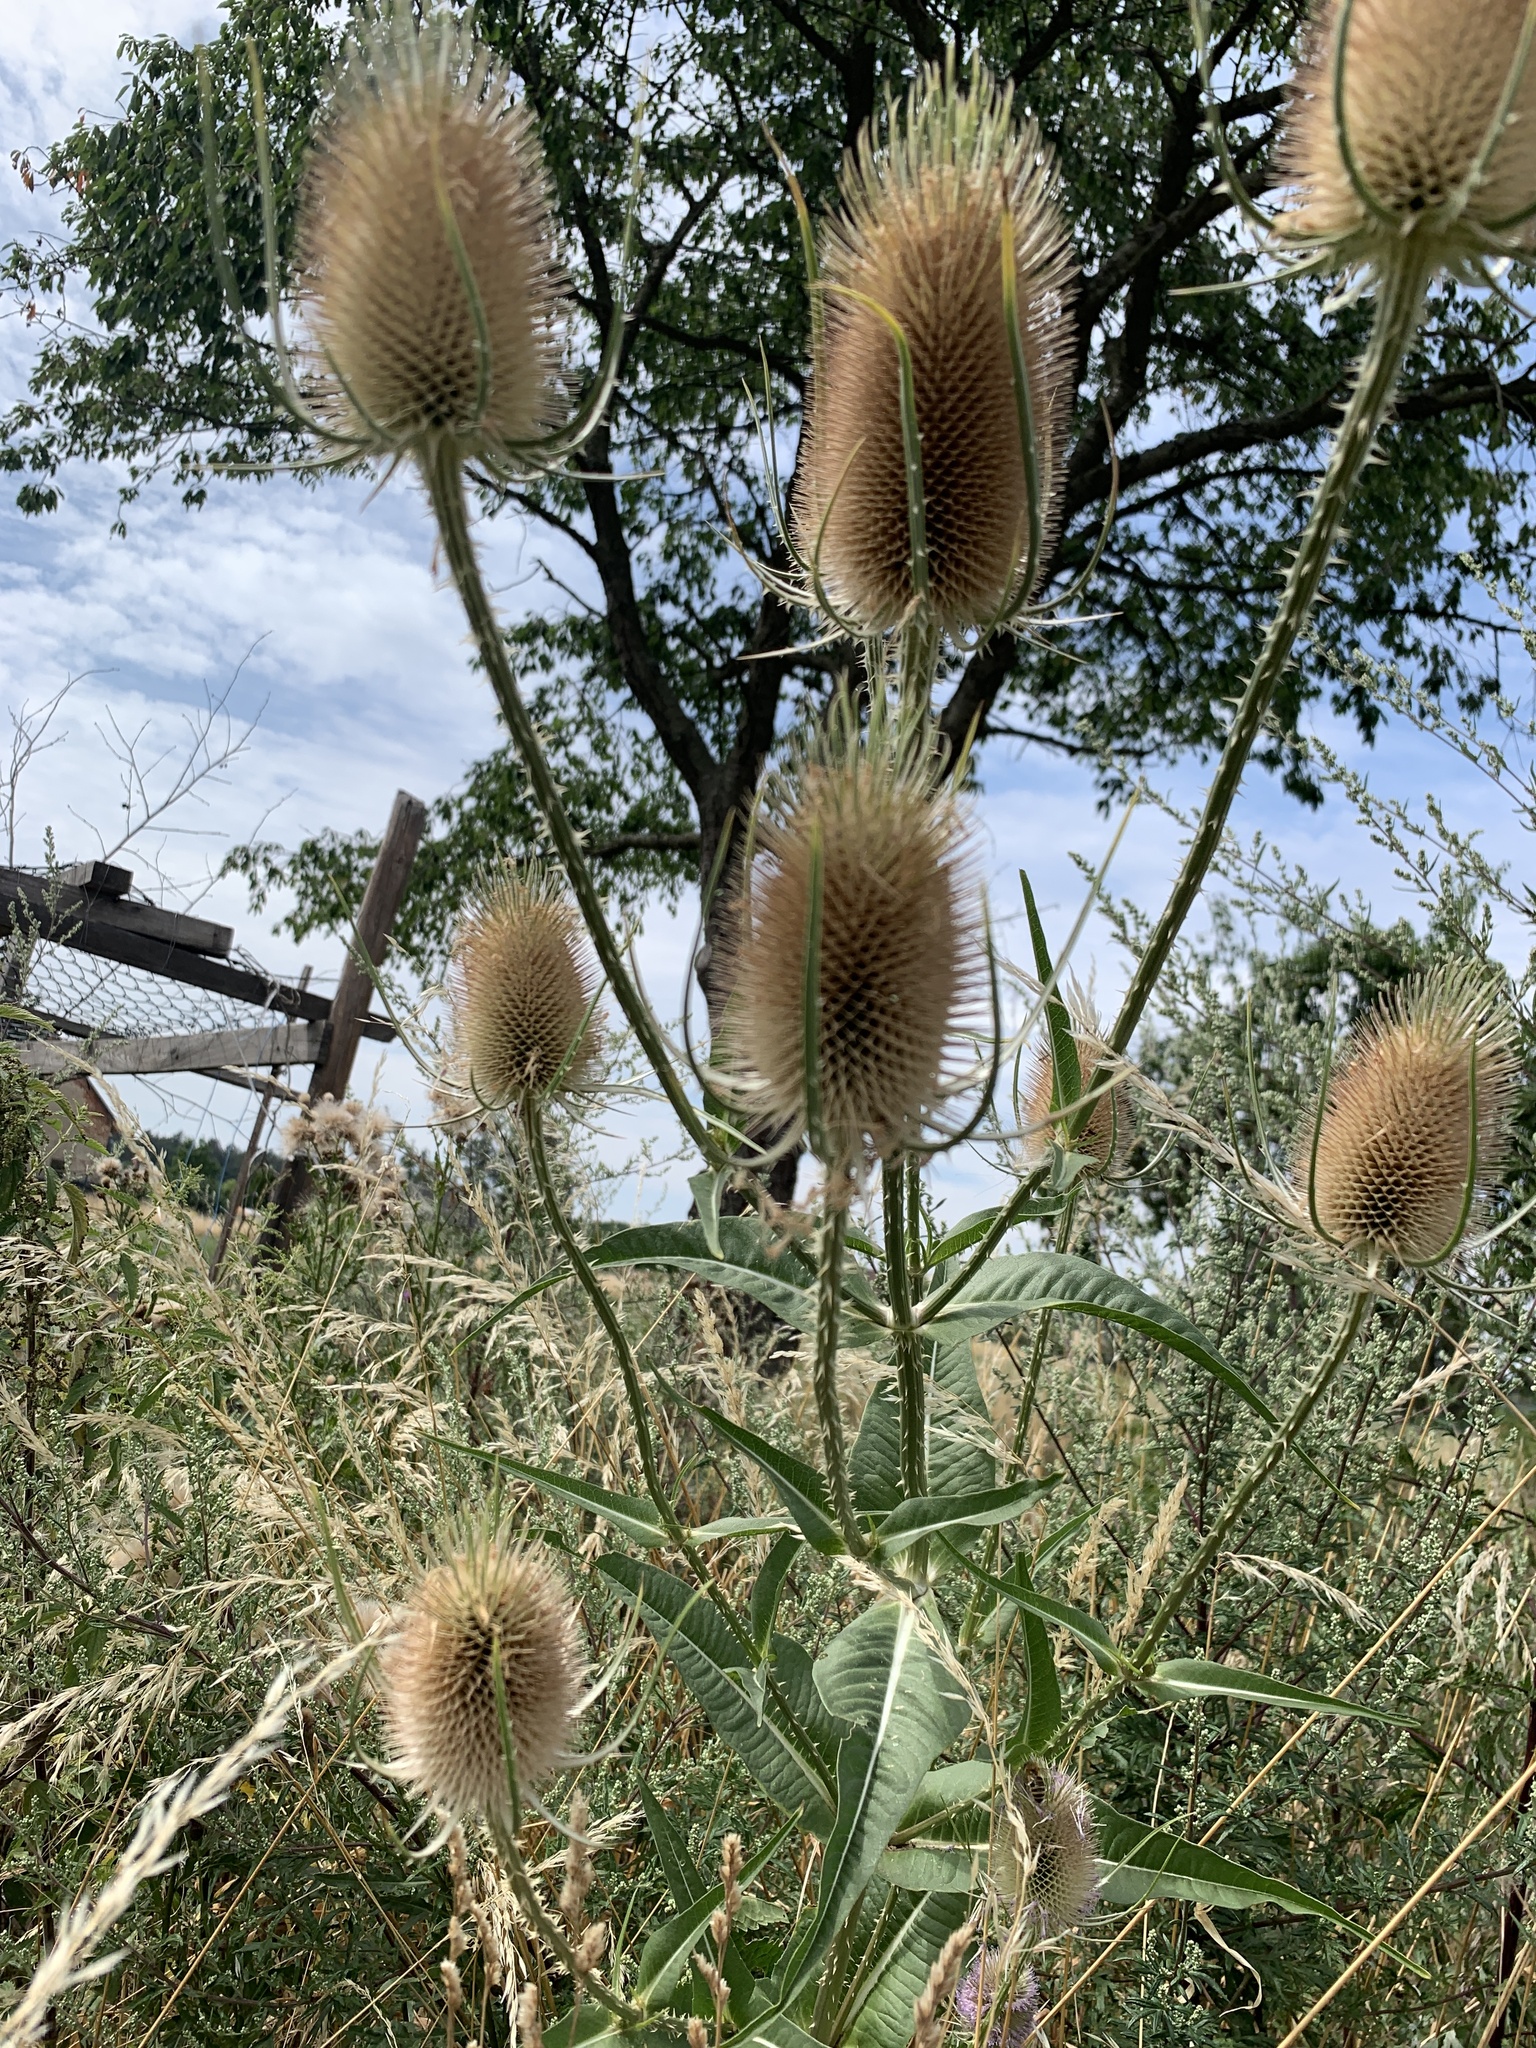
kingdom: Plantae
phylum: Tracheophyta
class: Magnoliopsida
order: Dipsacales
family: Caprifoliaceae
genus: Dipsacus
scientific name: Dipsacus fullonum
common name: Teasel
